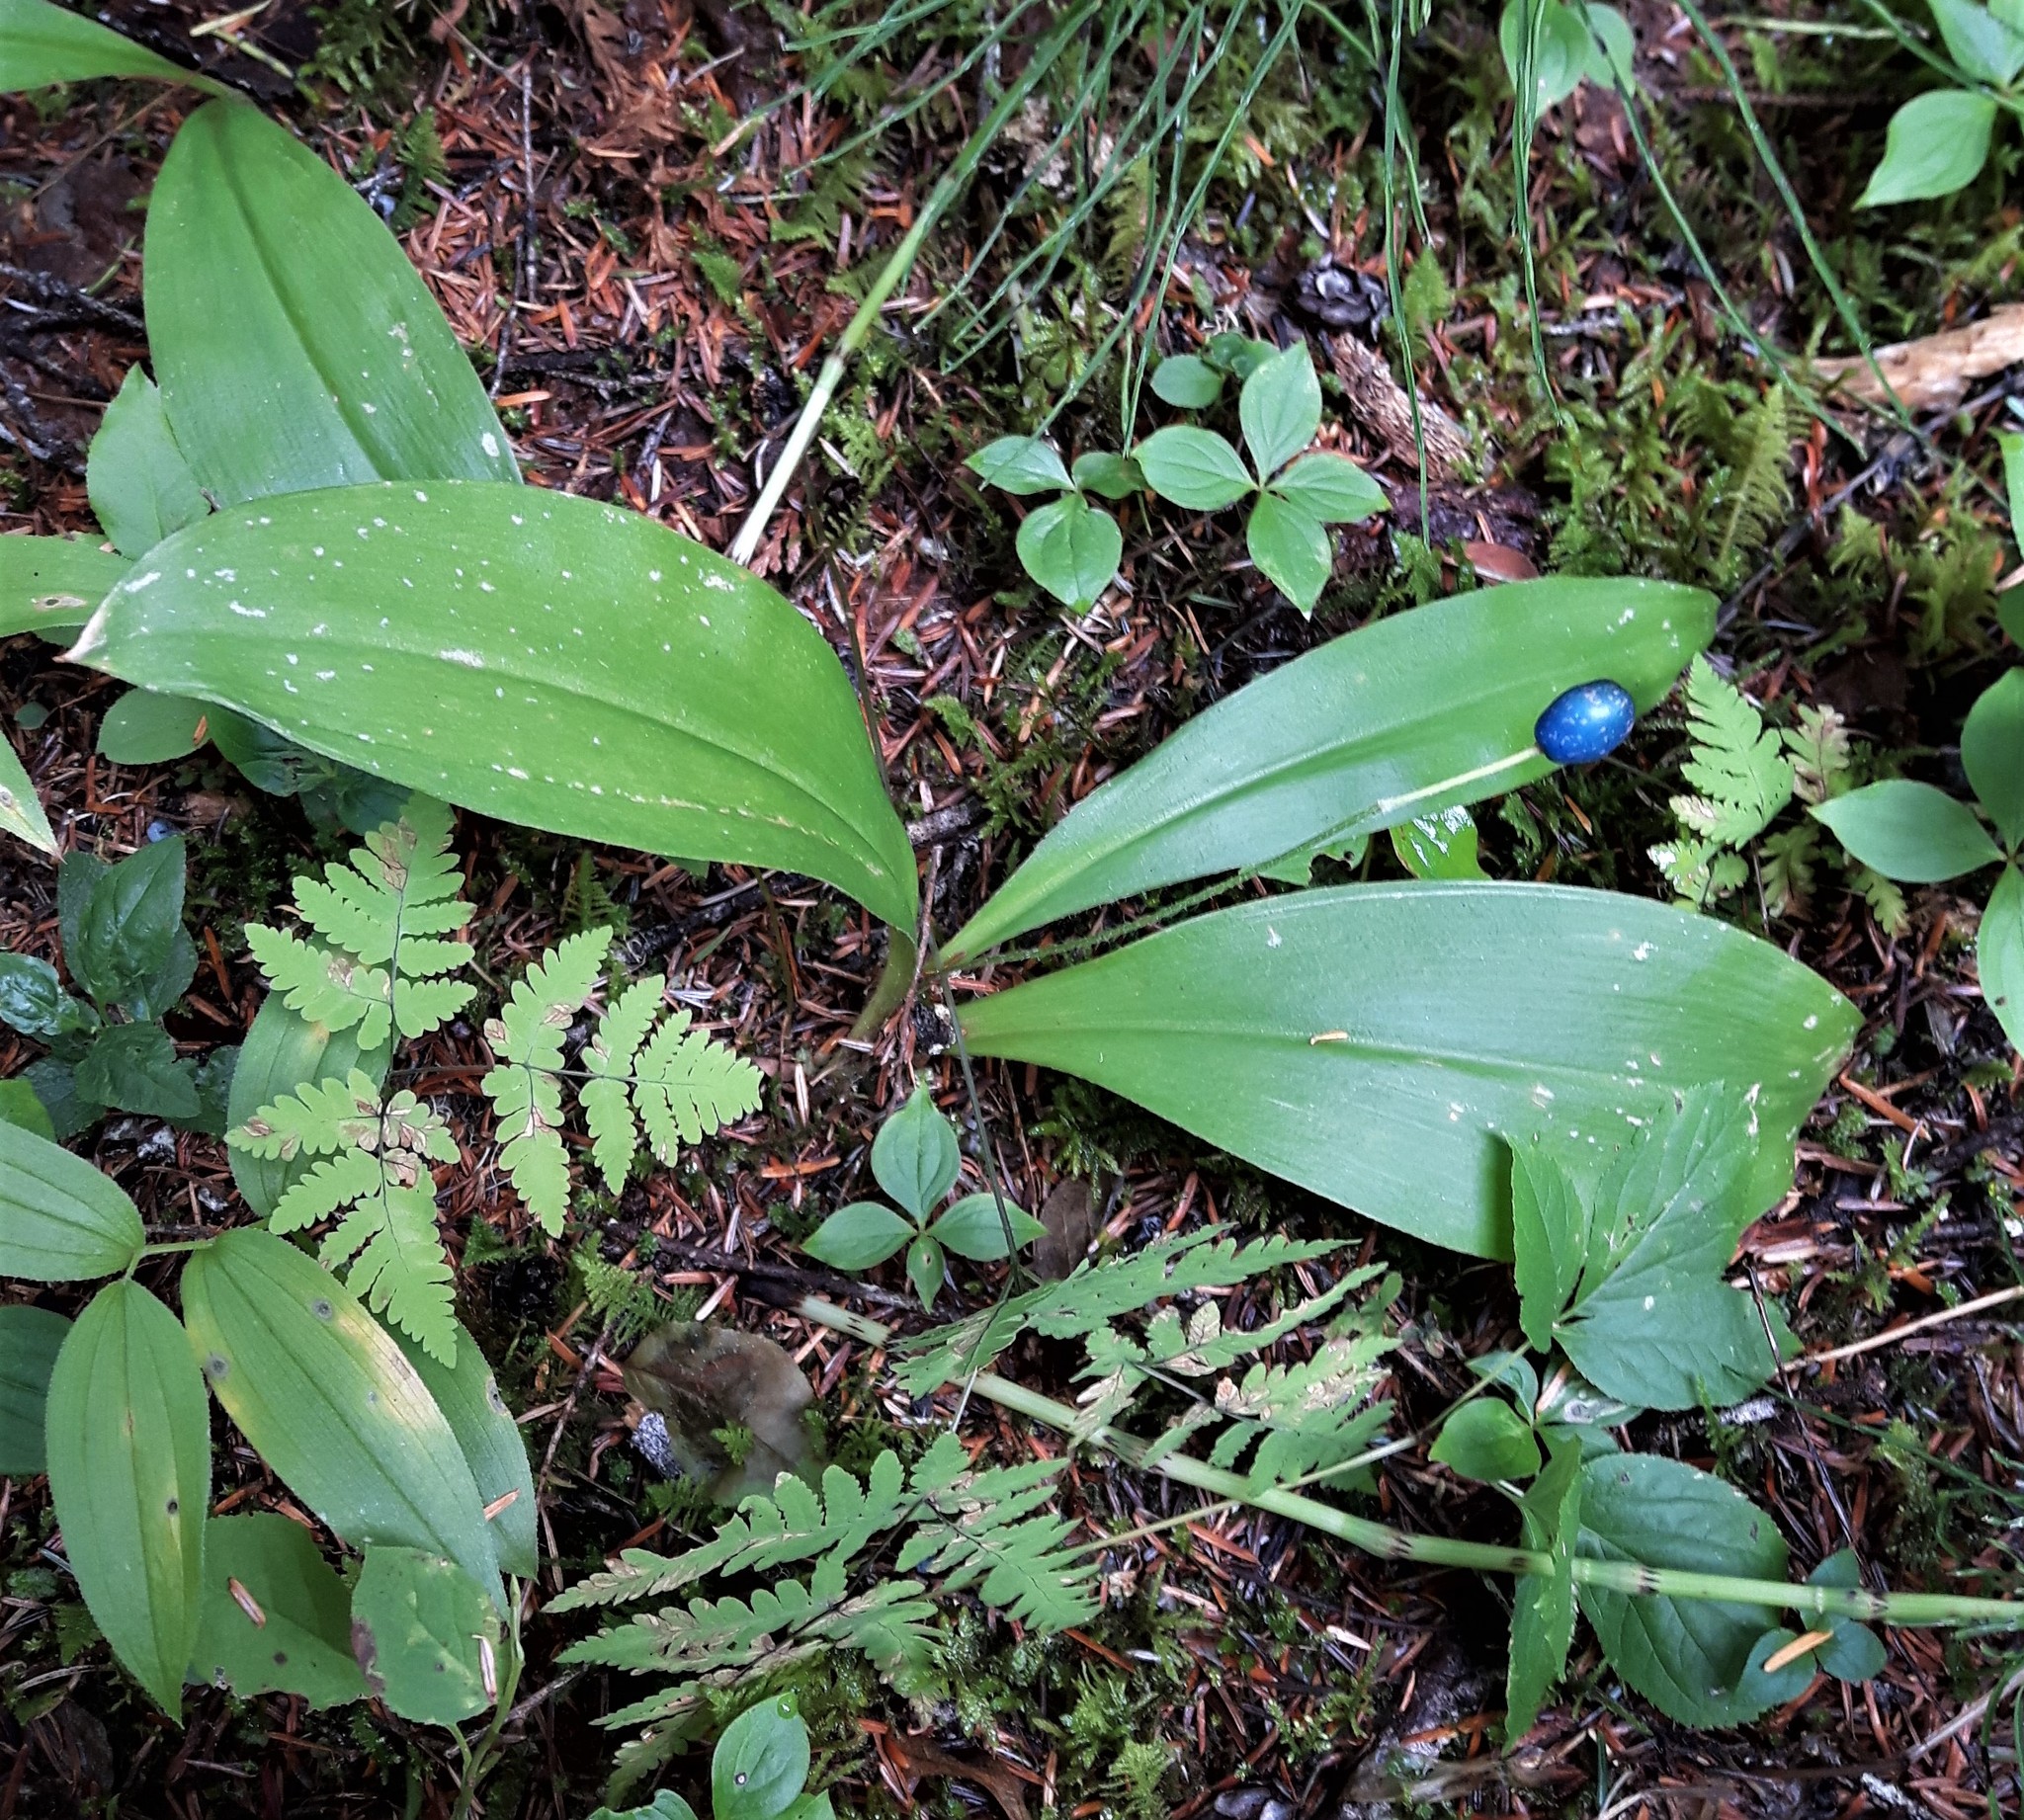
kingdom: Plantae
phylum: Tracheophyta
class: Liliopsida
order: Liliales
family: Liliaceae
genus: Clintonia
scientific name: Clintonia uniflora
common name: Queen's cup
